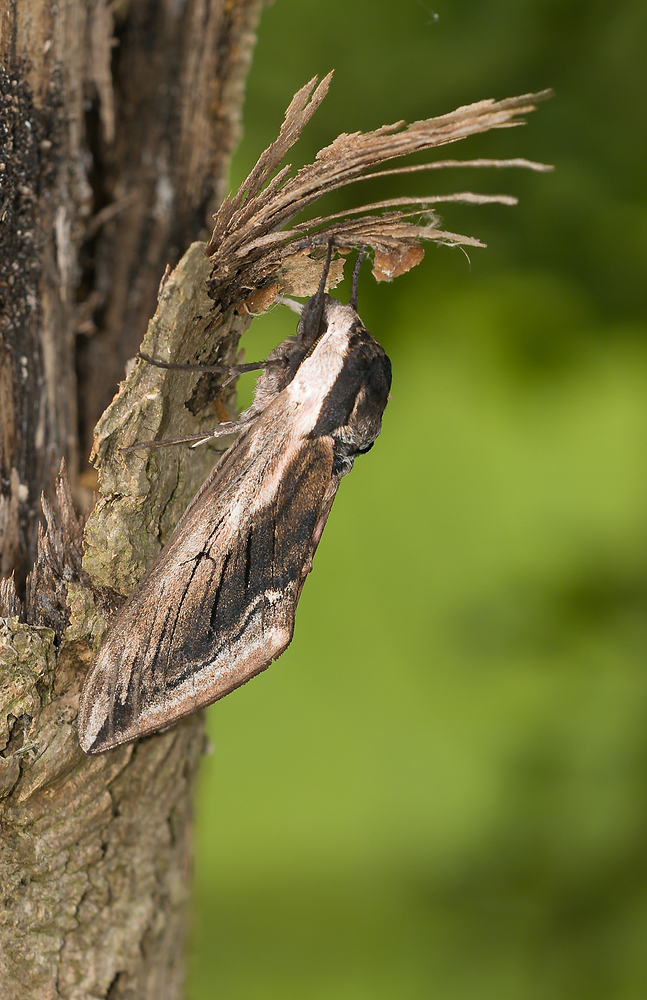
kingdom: Animalia
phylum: Arthropoda
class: Insecta
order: Lepidoptera
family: Sphingidae
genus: Sphinx
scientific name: Sphinx ligustri
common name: Privet hawk-moth
